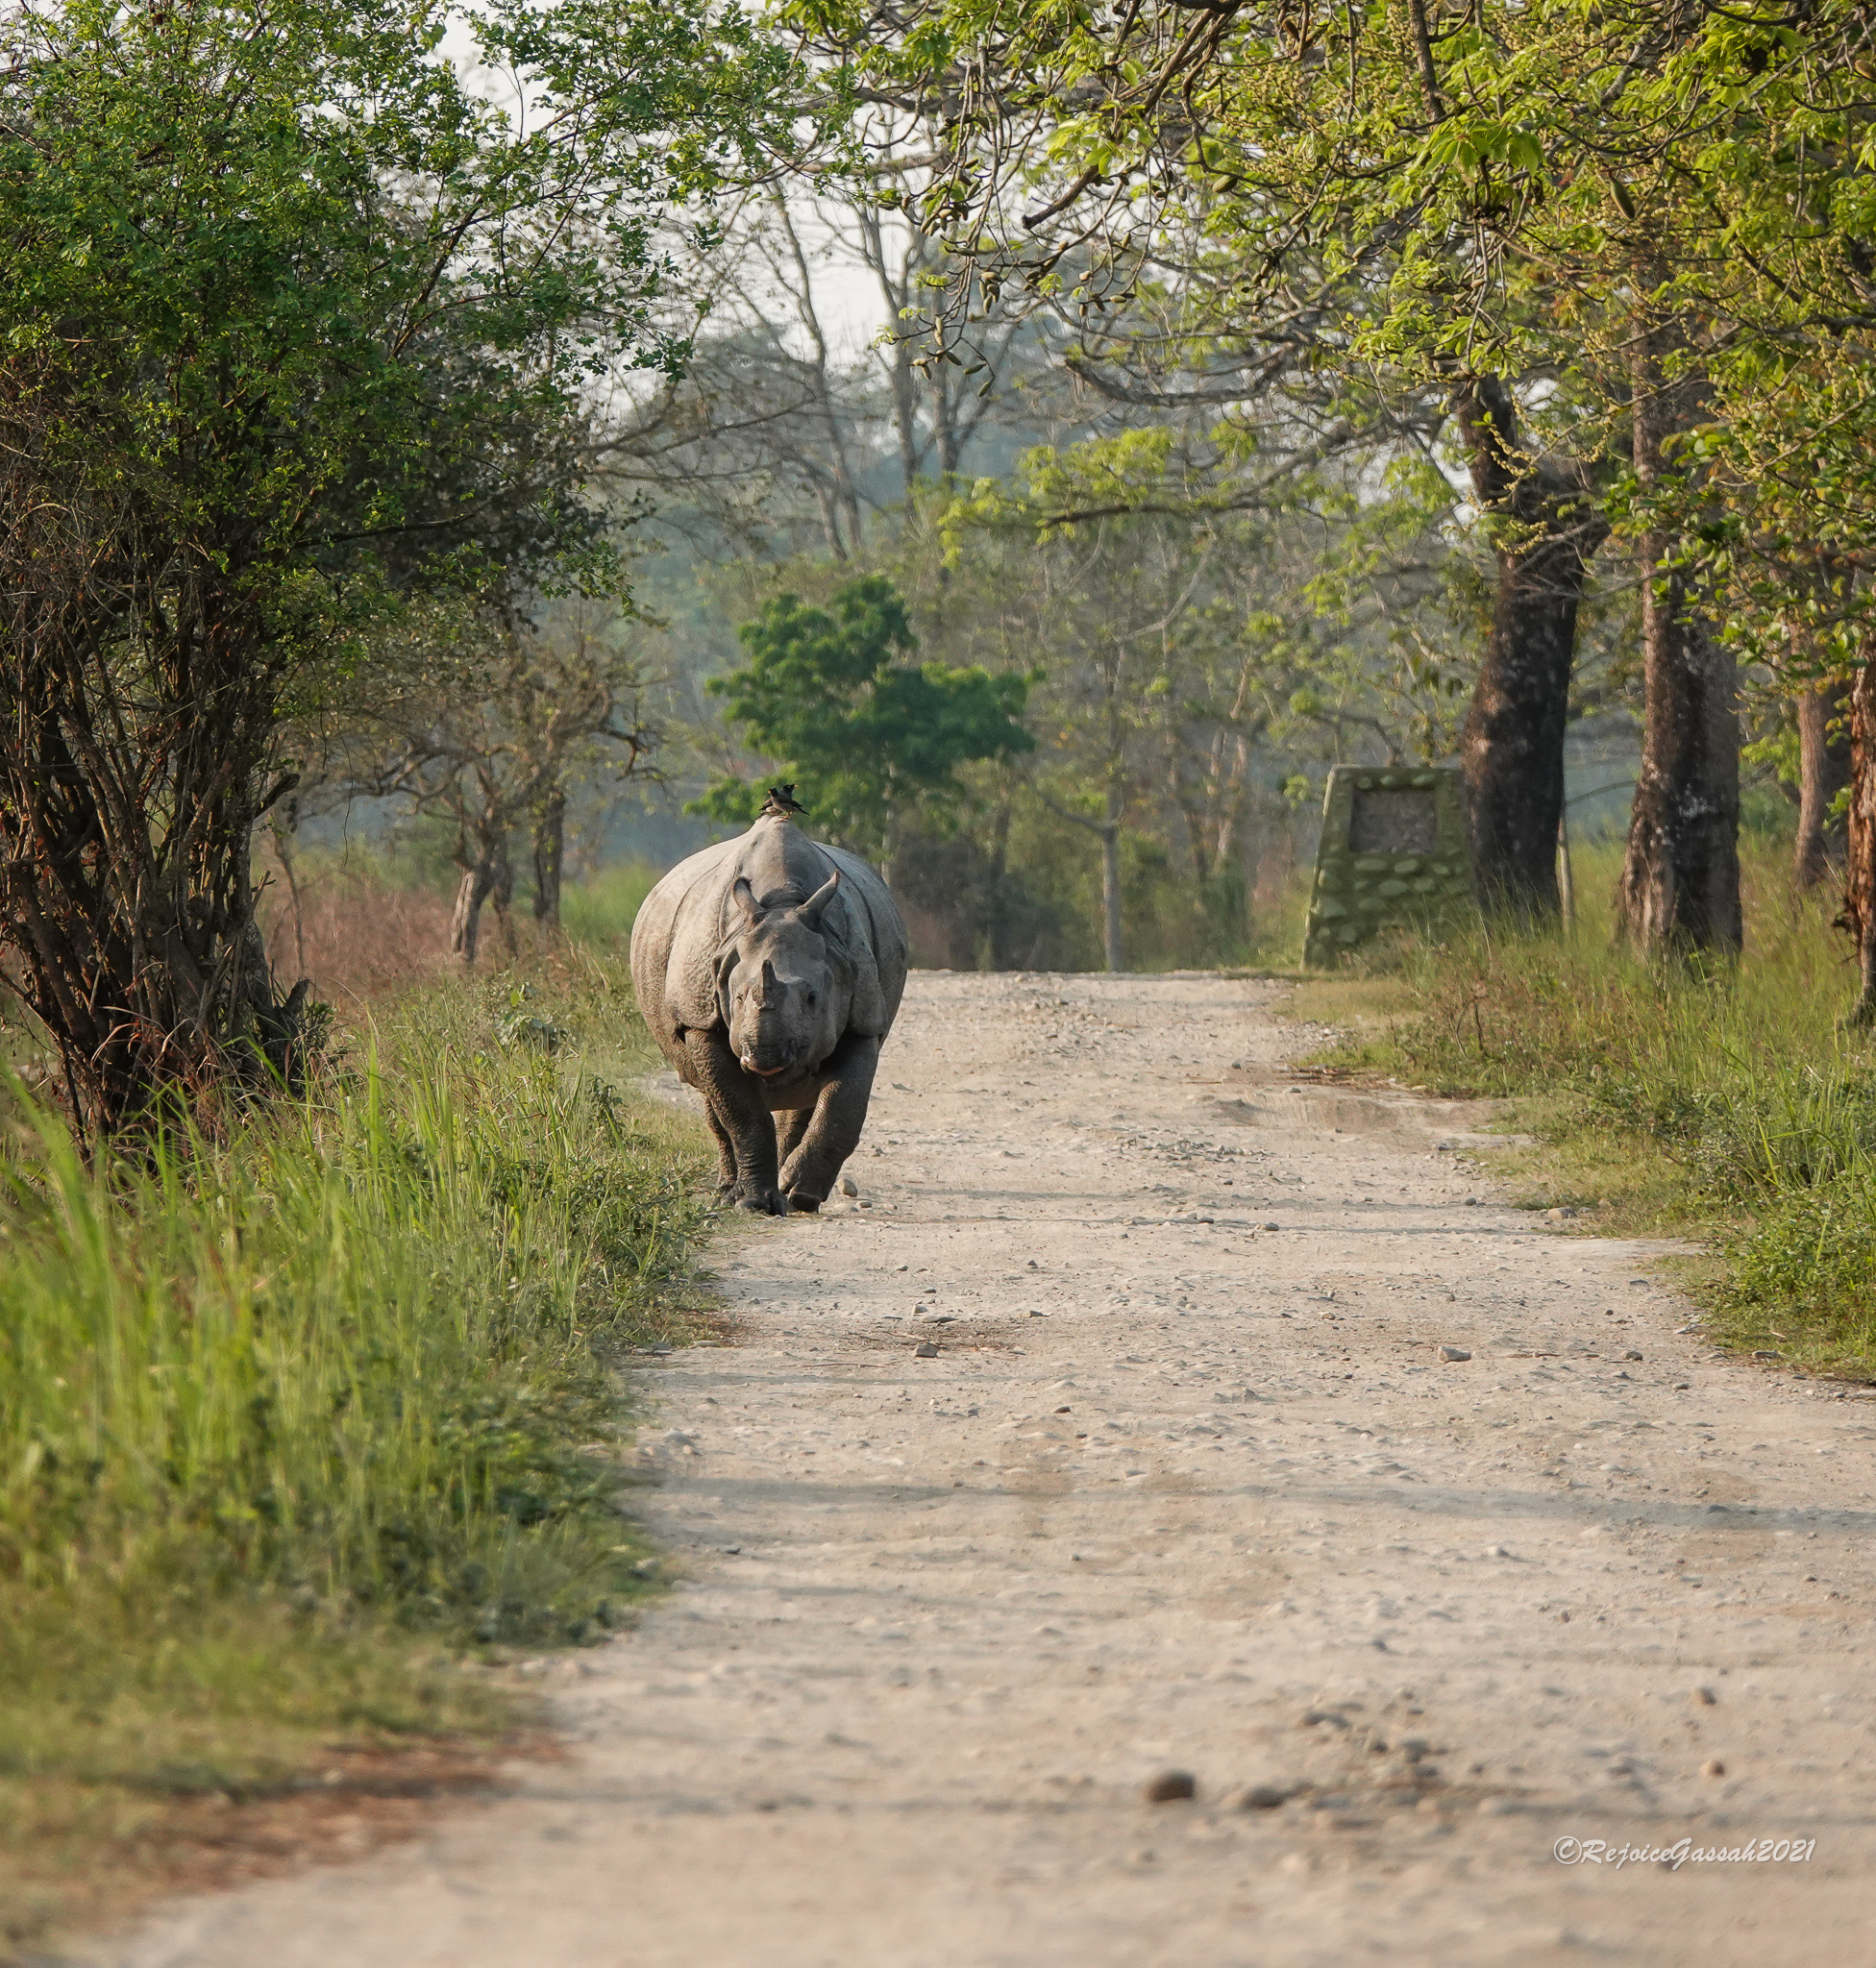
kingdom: Animalia
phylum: Chordata
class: Mammalia
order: Perissodactyla
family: Rhinocerotidae
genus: Rhinoceros
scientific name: Rhinoceros unicornis
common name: Indian rhinoceros
